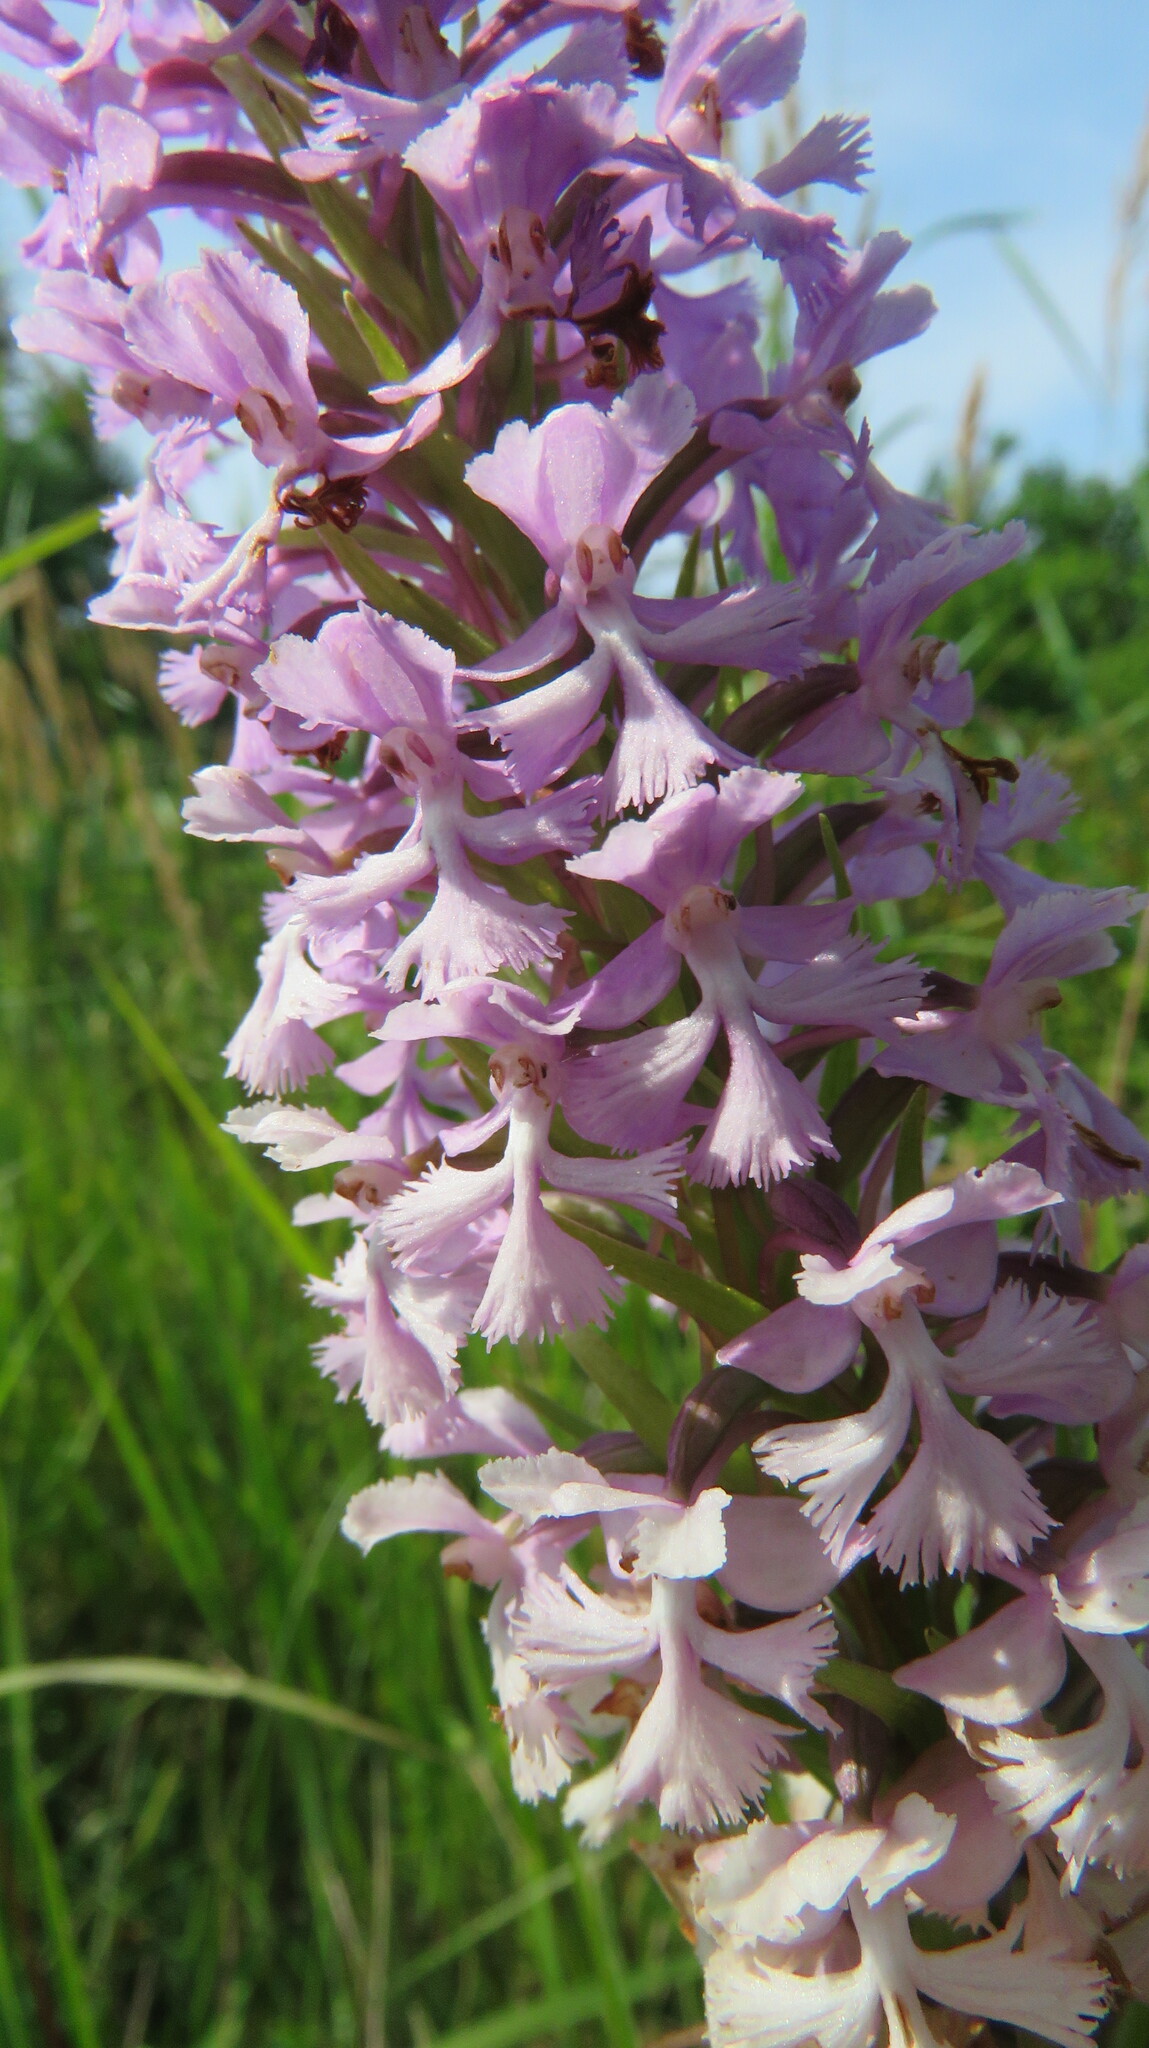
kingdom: Plantae
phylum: Tracheophyta
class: Liliopsida
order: Asparagales
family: Orchidaceae
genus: Platanthera
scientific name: Platanthera psycodes
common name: Lesser purple fringed orchid
